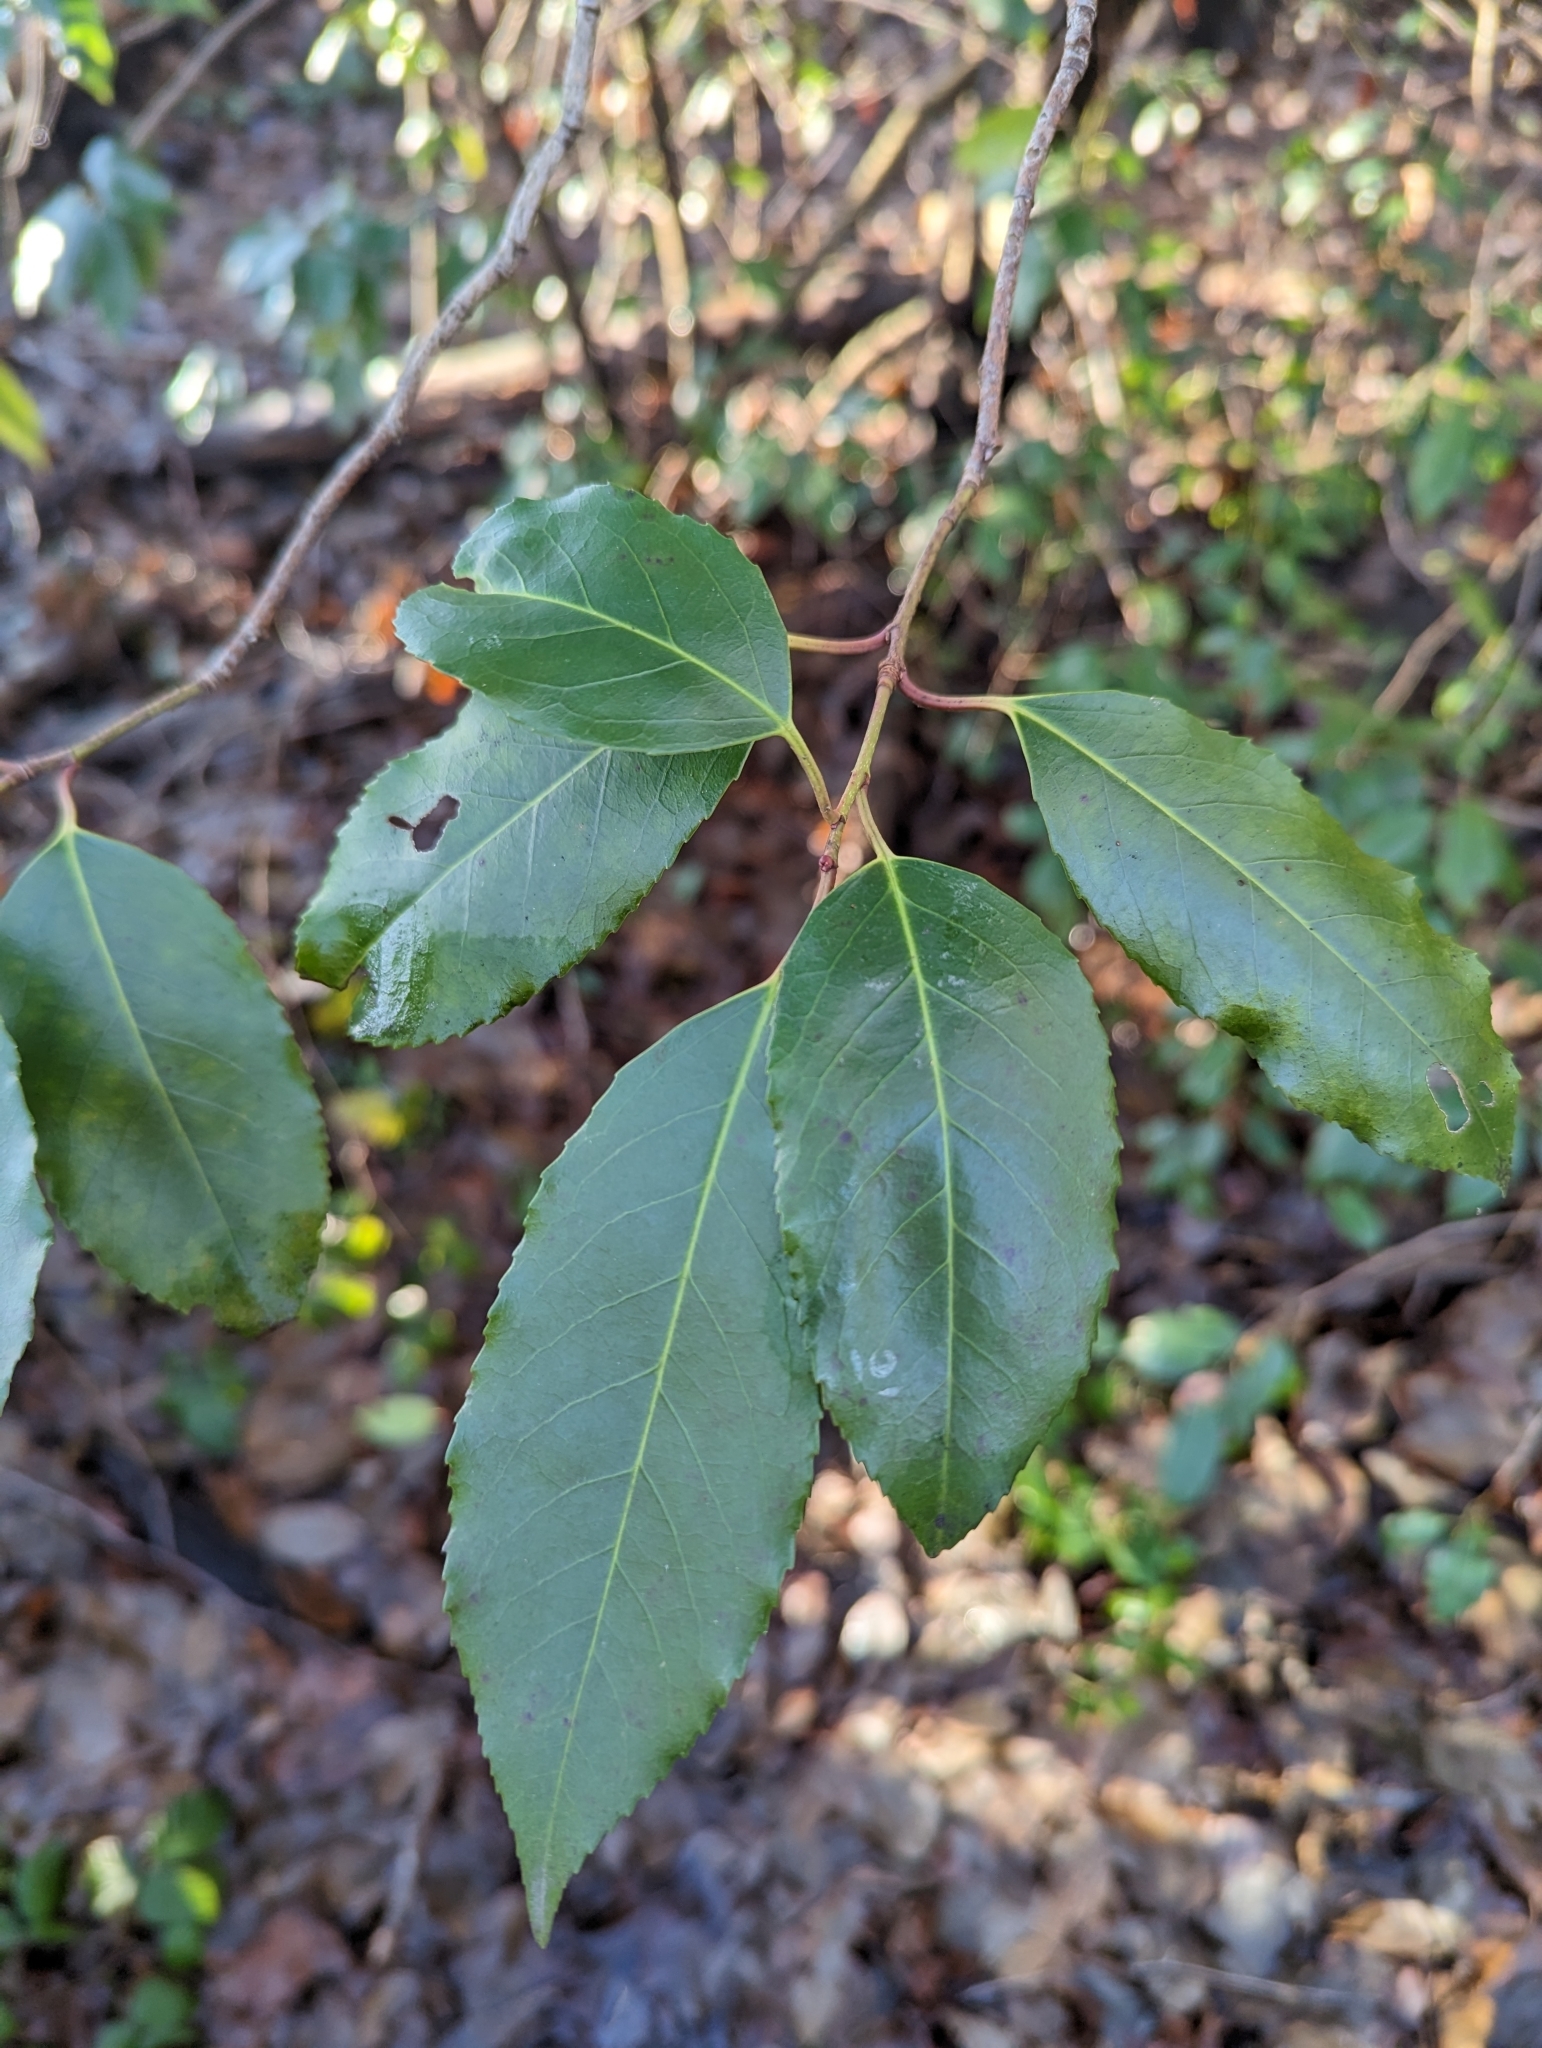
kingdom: Plantae
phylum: Tracheophyta
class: Magnoliopsida
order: Rosales
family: Rosaceae
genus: Prunus
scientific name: Prunus lusitanica
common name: Portugal laurel
